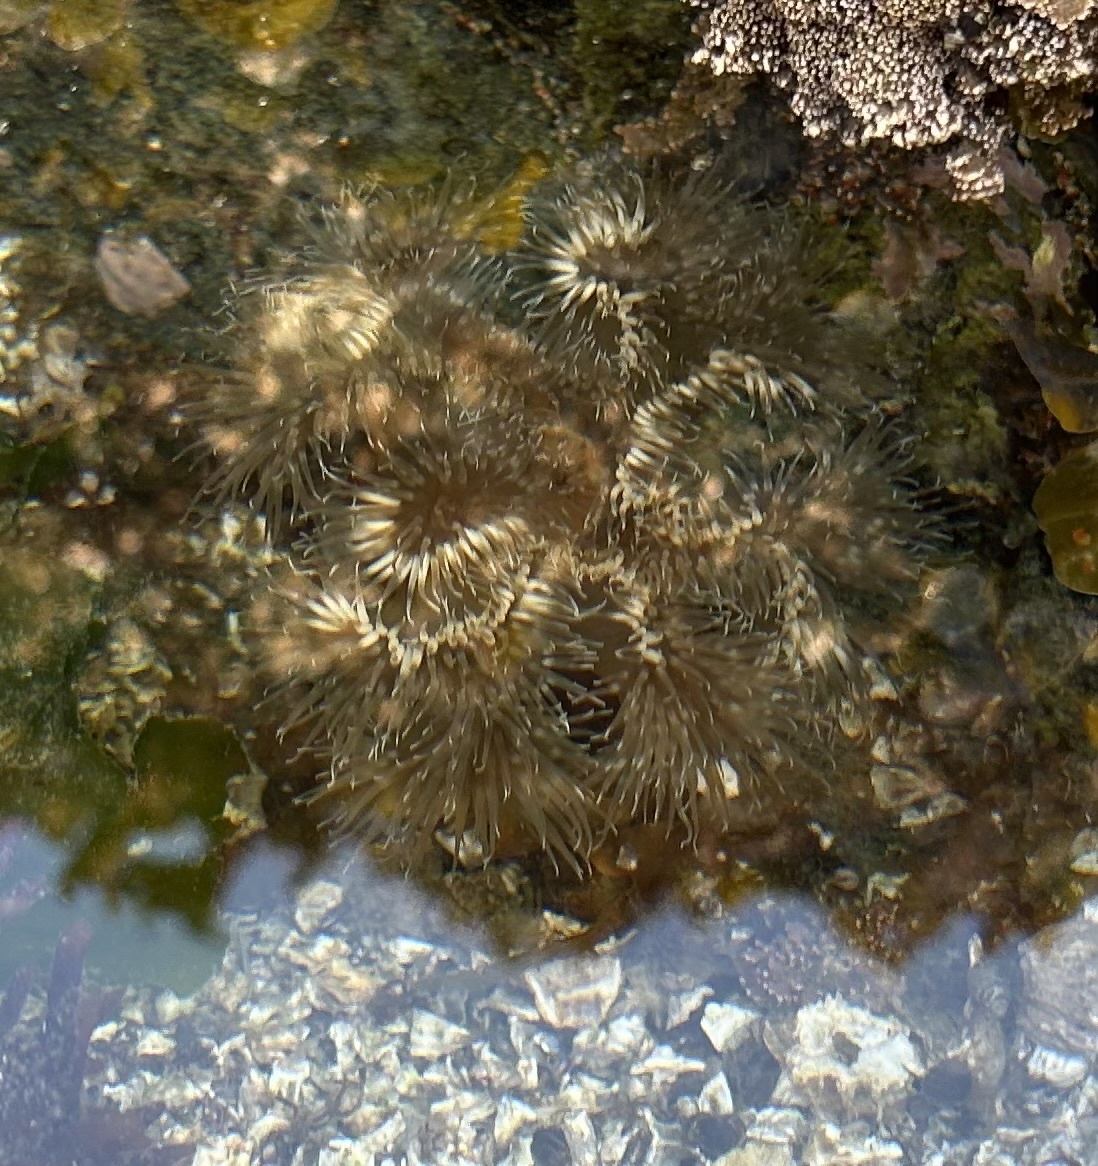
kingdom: Animalia
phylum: Cnidaria
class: Anthozoa
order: Actiniaria
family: Metridiidae
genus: Metridium
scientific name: Metridium senile
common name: Clonal plumose anemone
